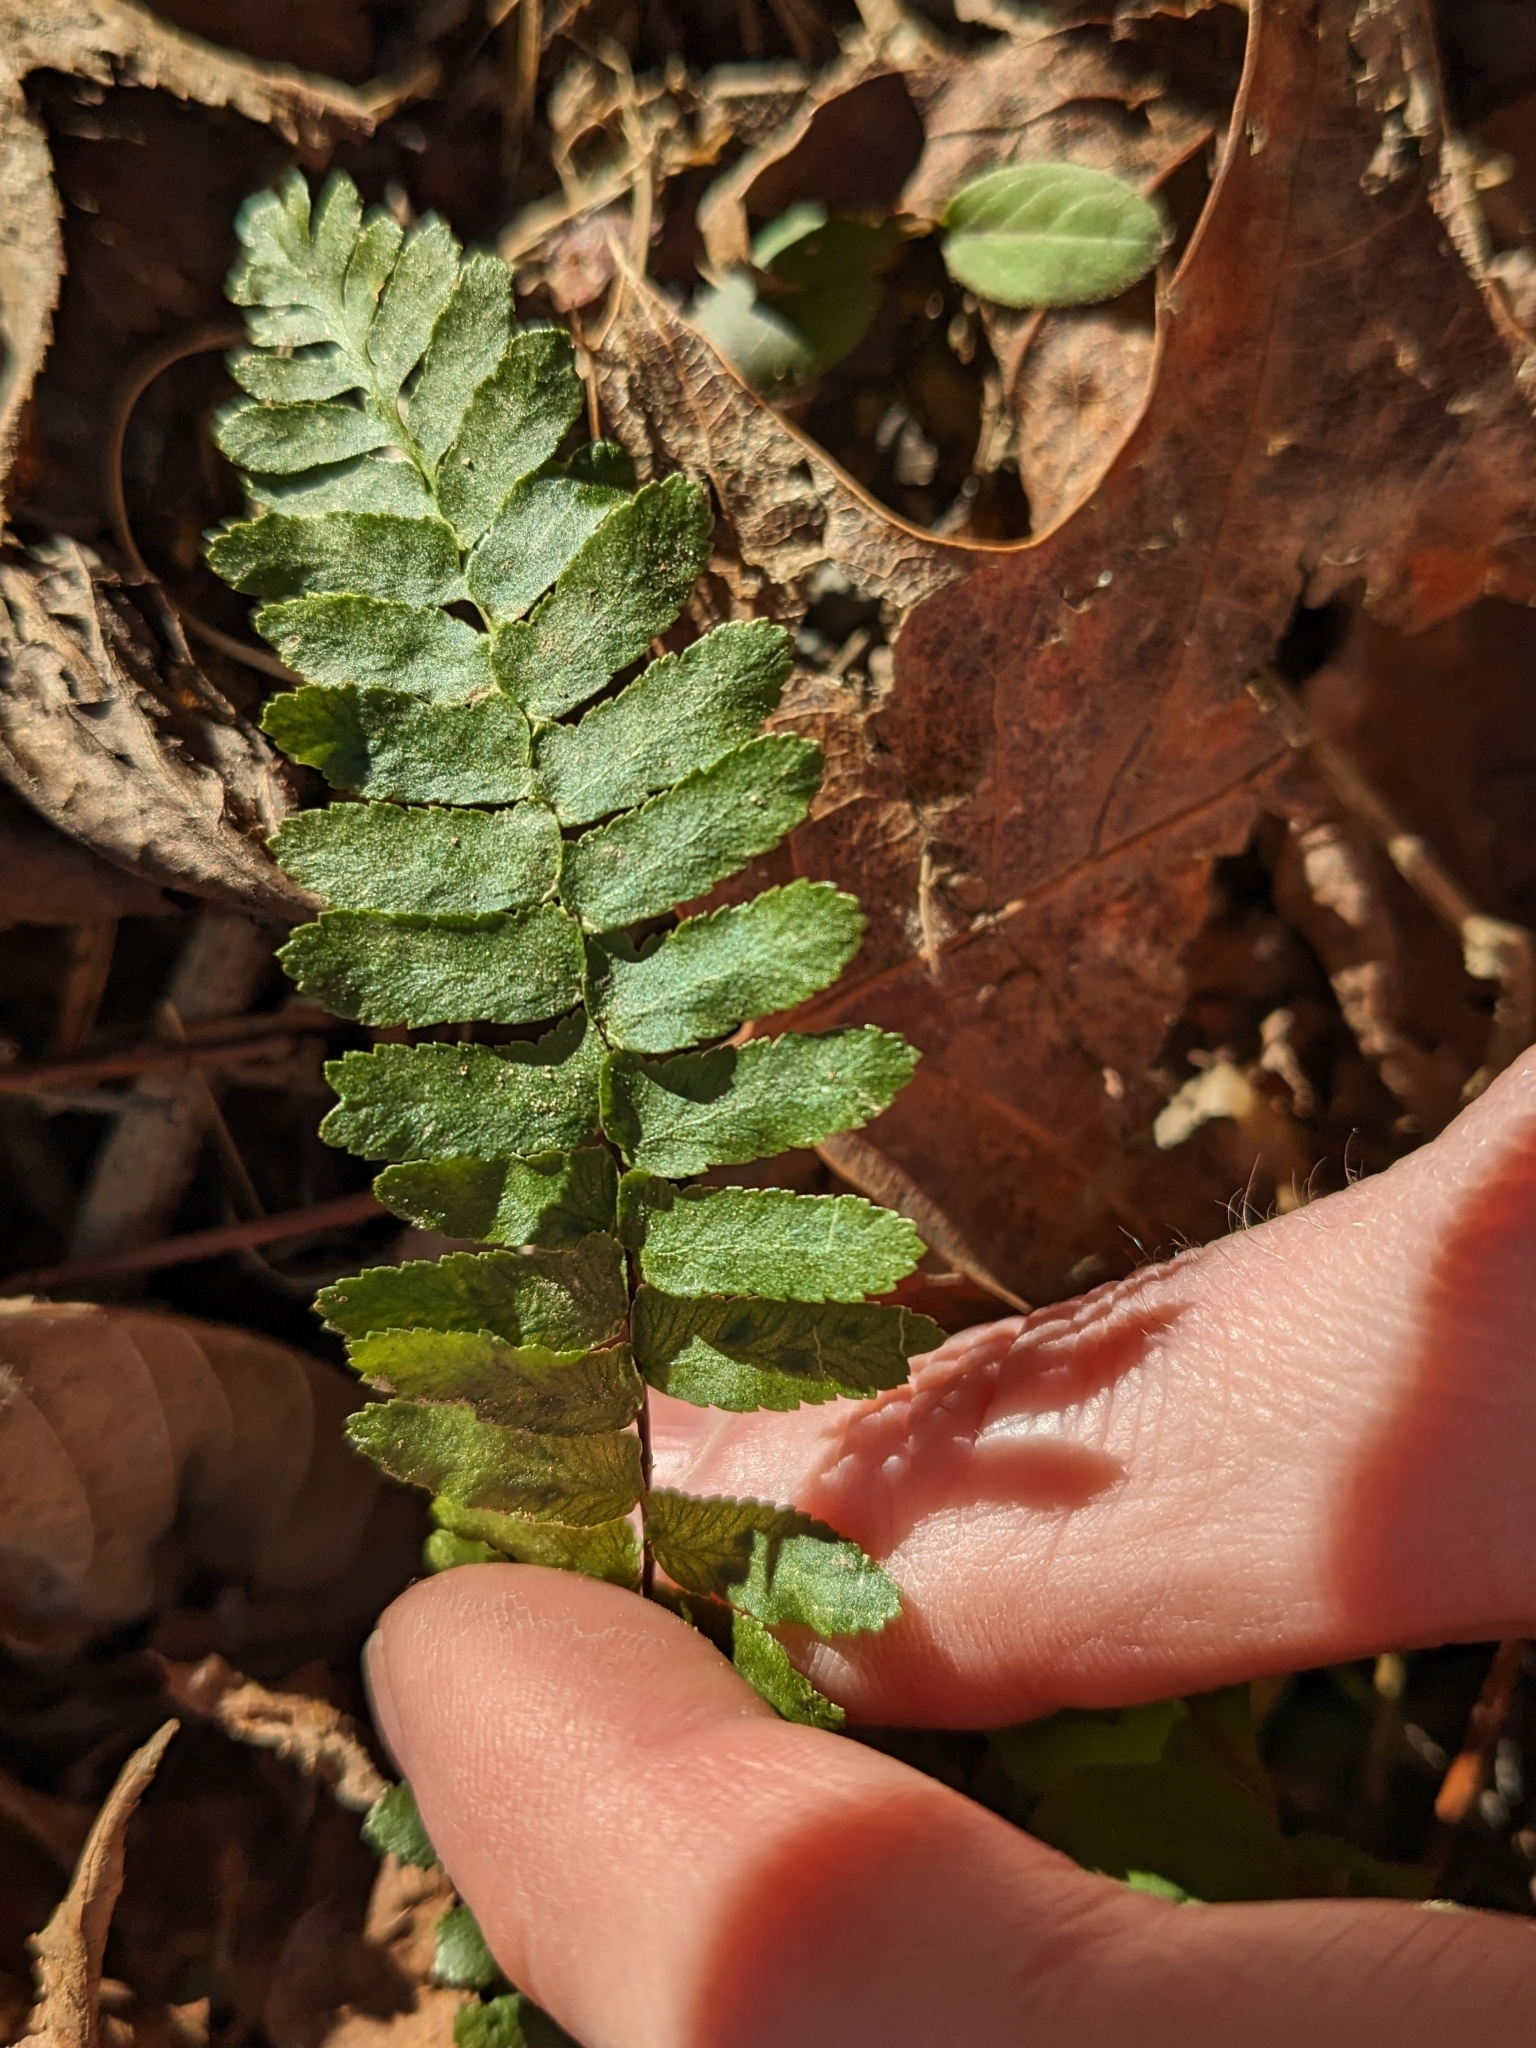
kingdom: Plantae
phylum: Tracheophyta
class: Polypodiopsida
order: Polypodiales
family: Aspleniaceae
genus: Asplenium
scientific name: Asplenium platyneuron
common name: Ebony spleenwort
